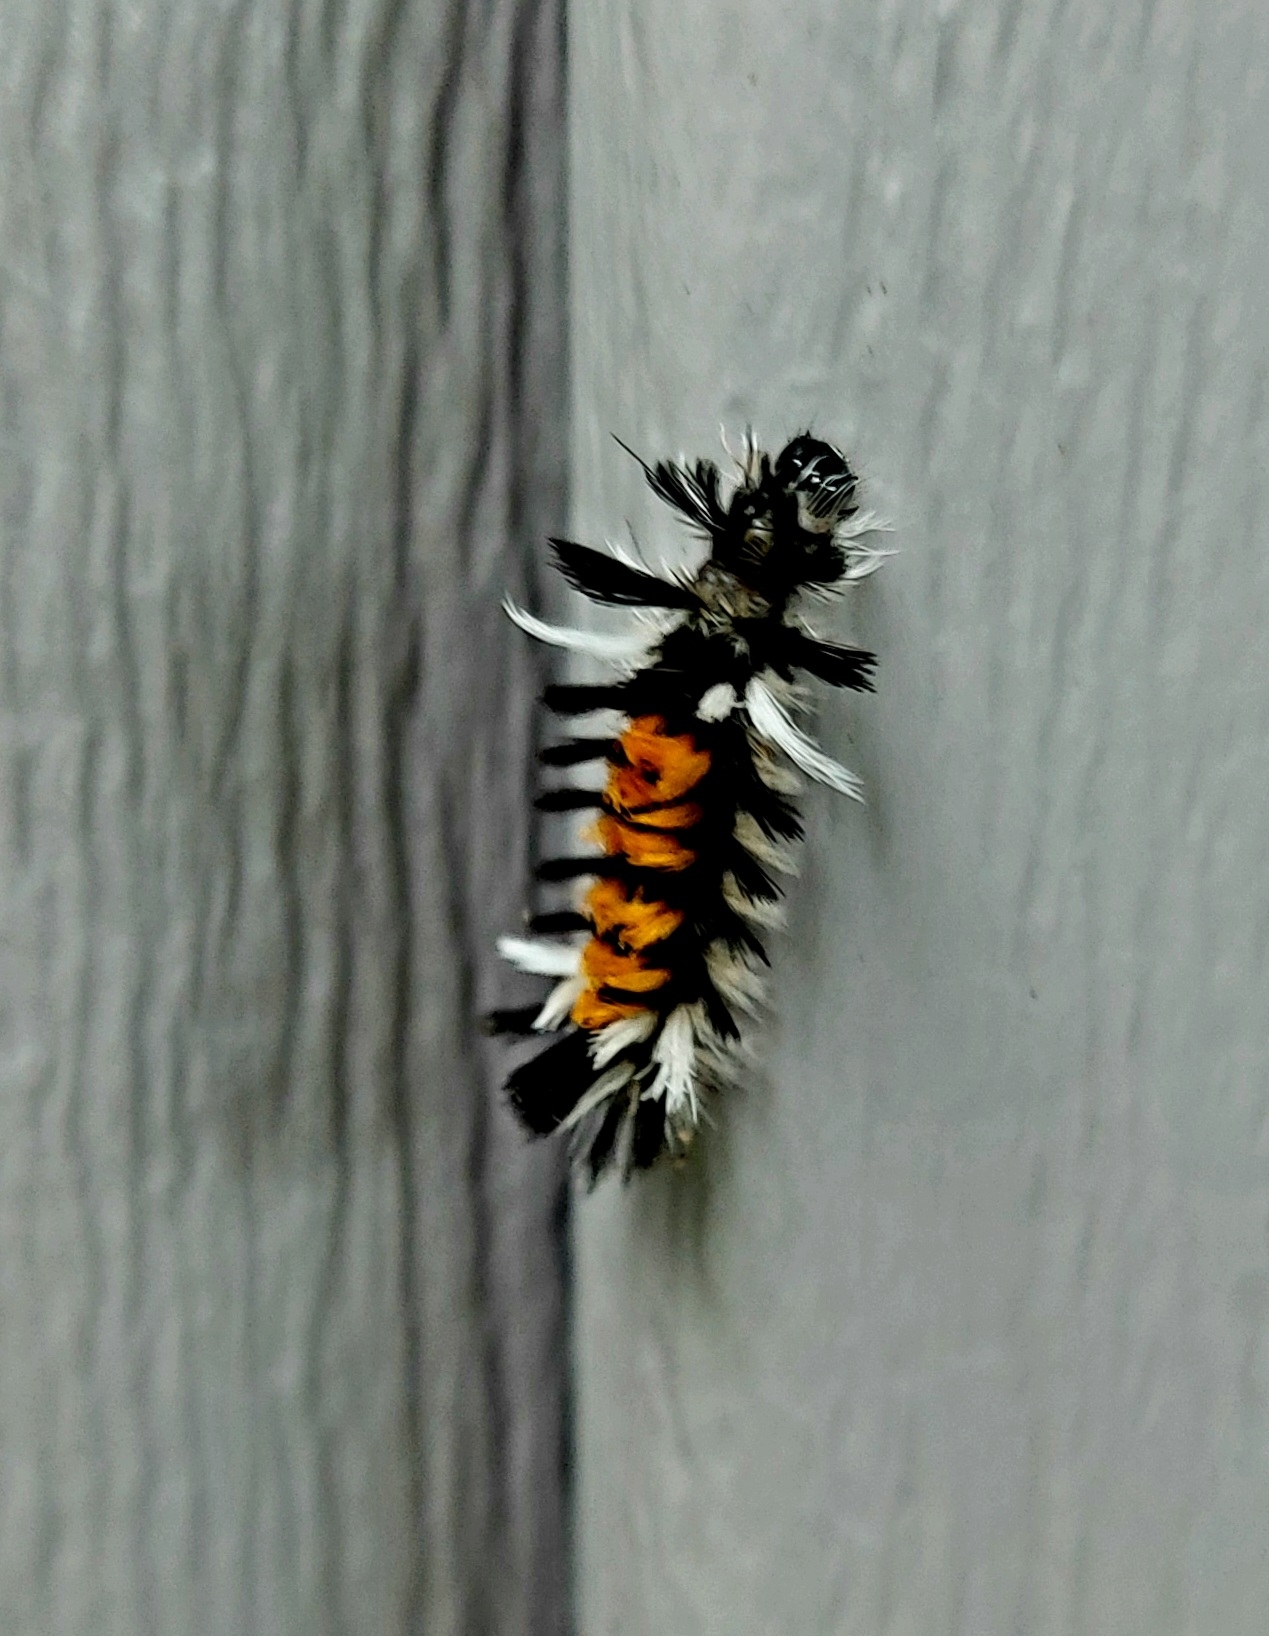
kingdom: Animalia
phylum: Arthropoda
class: Insecta
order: Lepidoptera
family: Erebidae
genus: Euchaetes
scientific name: Euchaetes egle
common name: Milkweed tussock moth
